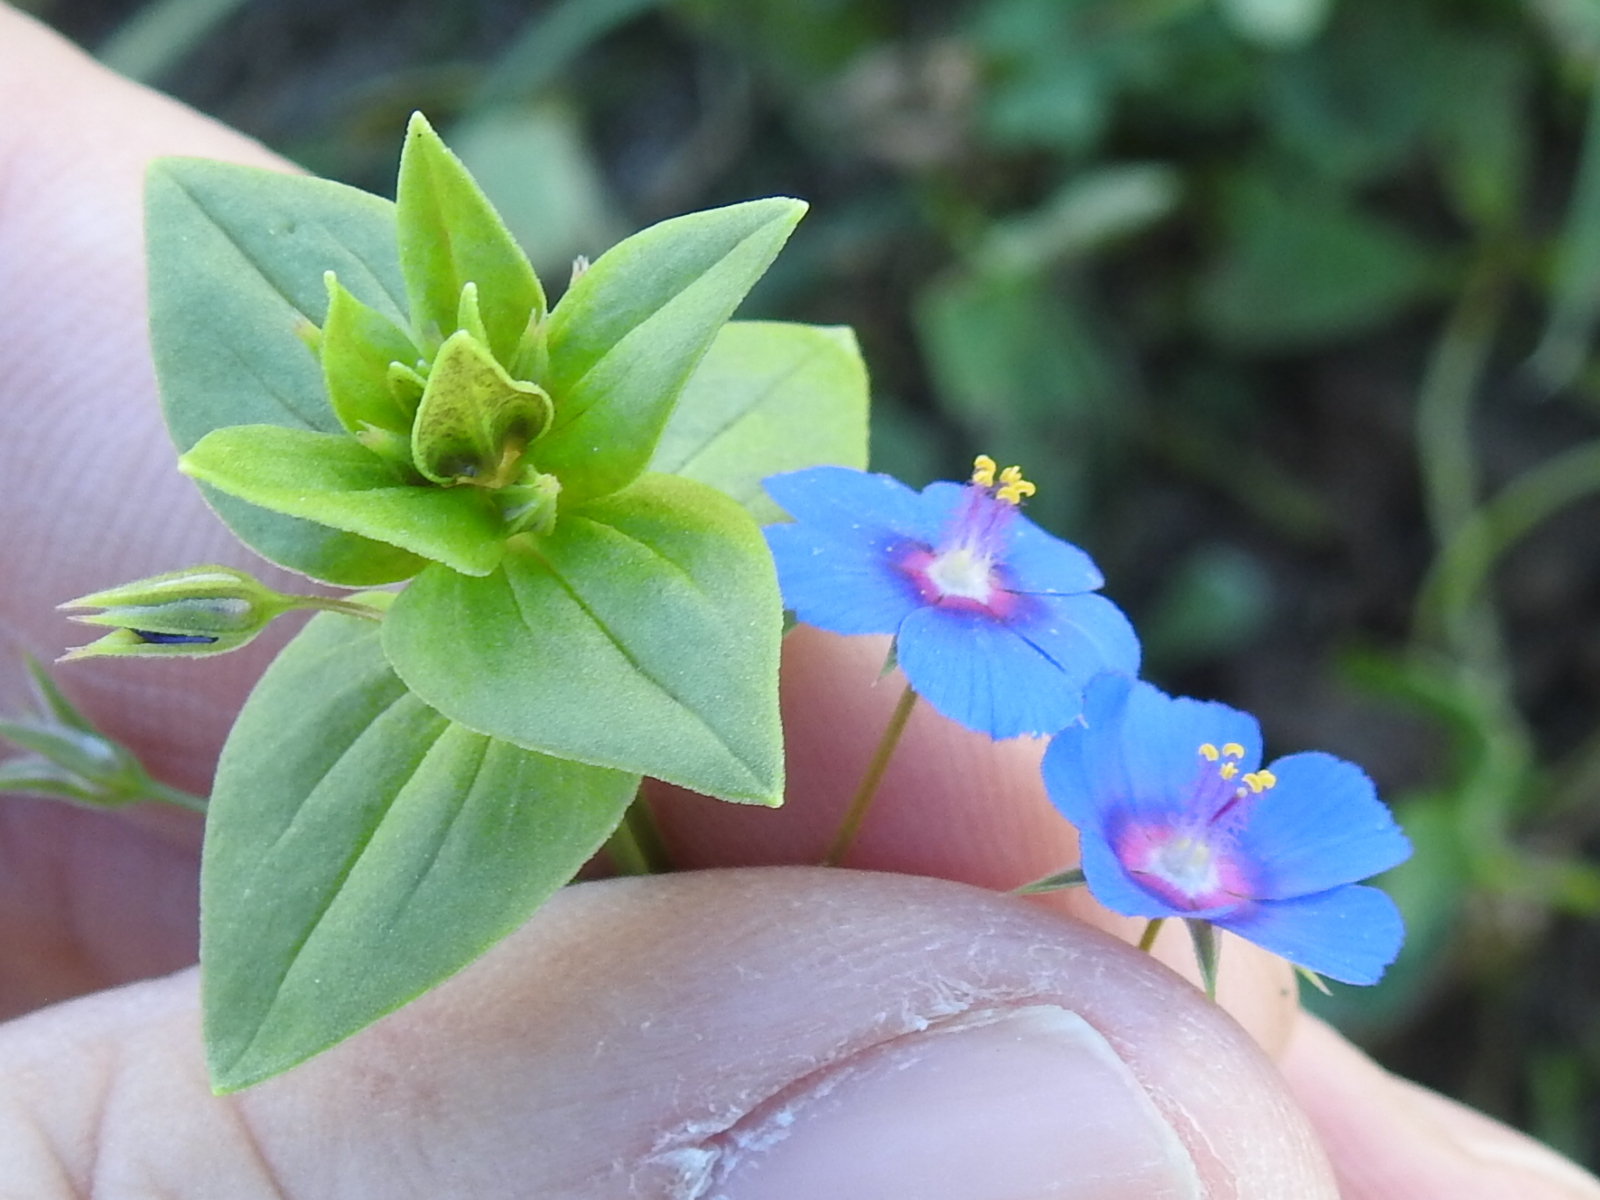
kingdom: Plantae
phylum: Tracheophyta
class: Magnoliopsida
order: Ericales
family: Primulaceae
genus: Lysimachia
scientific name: Lysimachia arvensis
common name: Scarlet pimpernel
